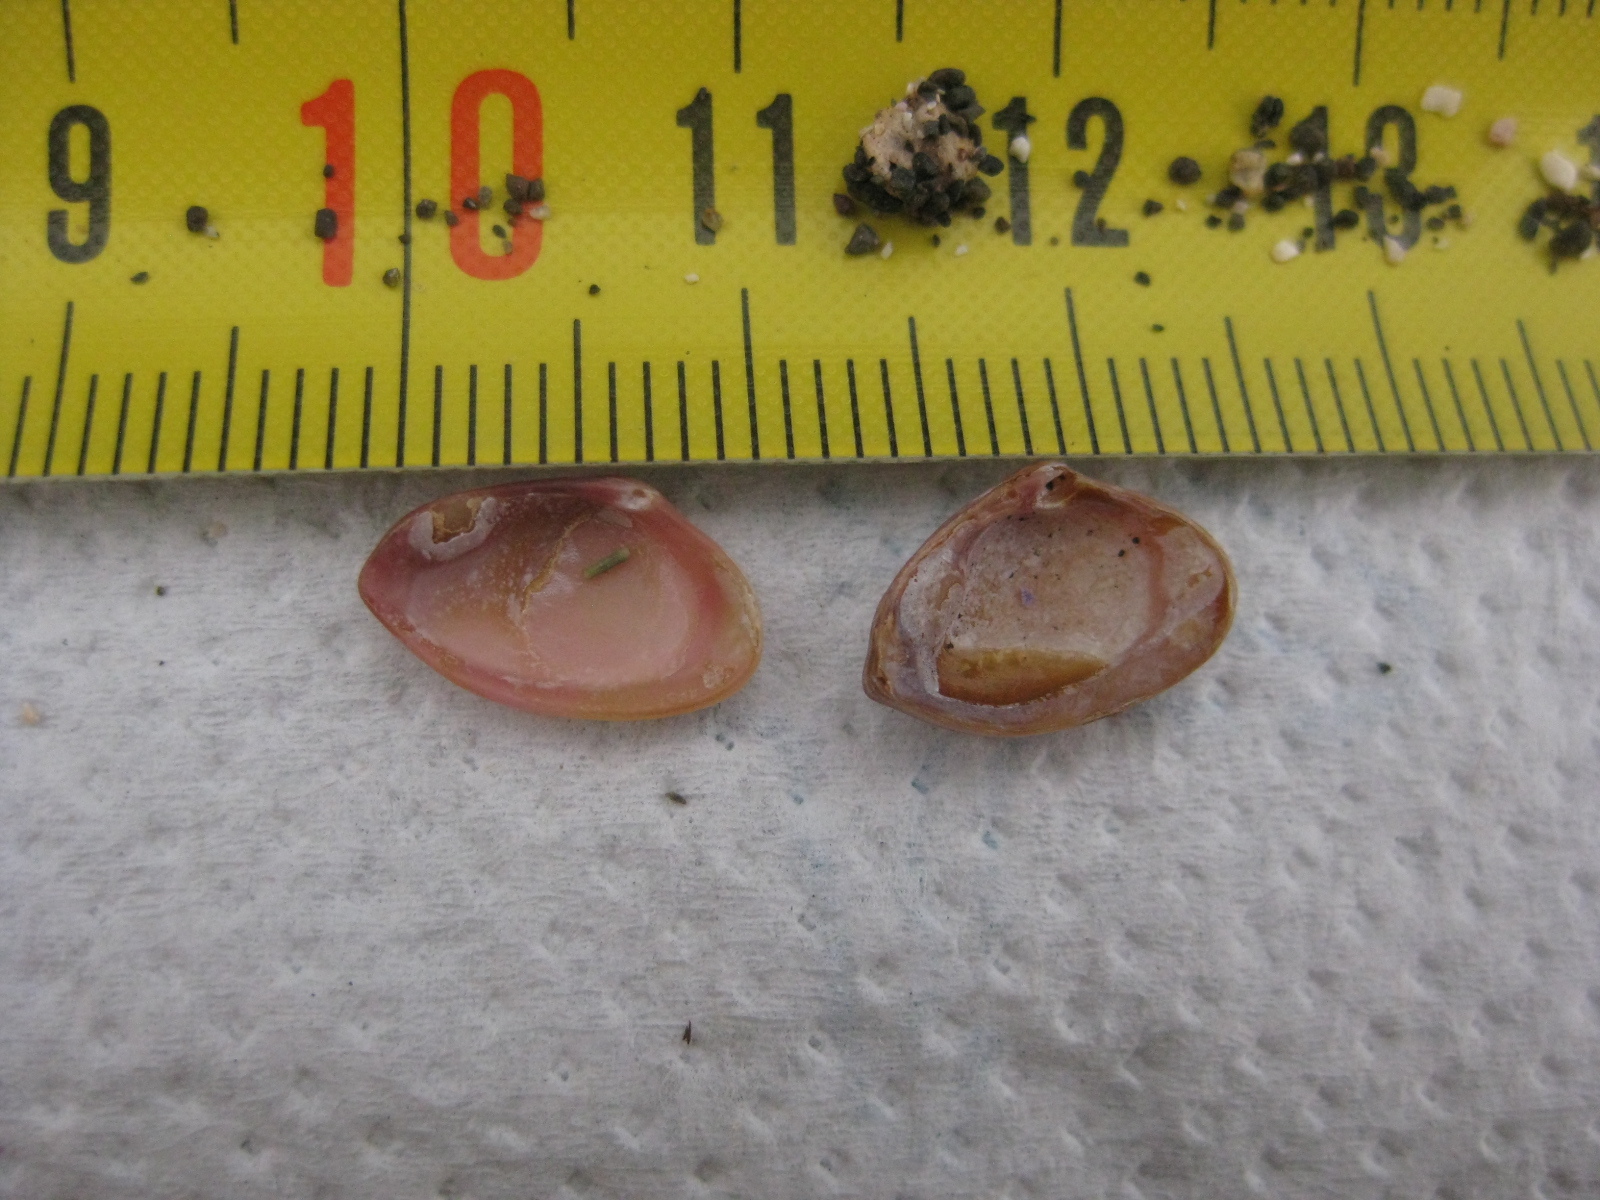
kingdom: Animalia
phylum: Mollusca
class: Bivalvia
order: Myida
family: Corbulidae
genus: Corbula
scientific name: Corbula zelandica
